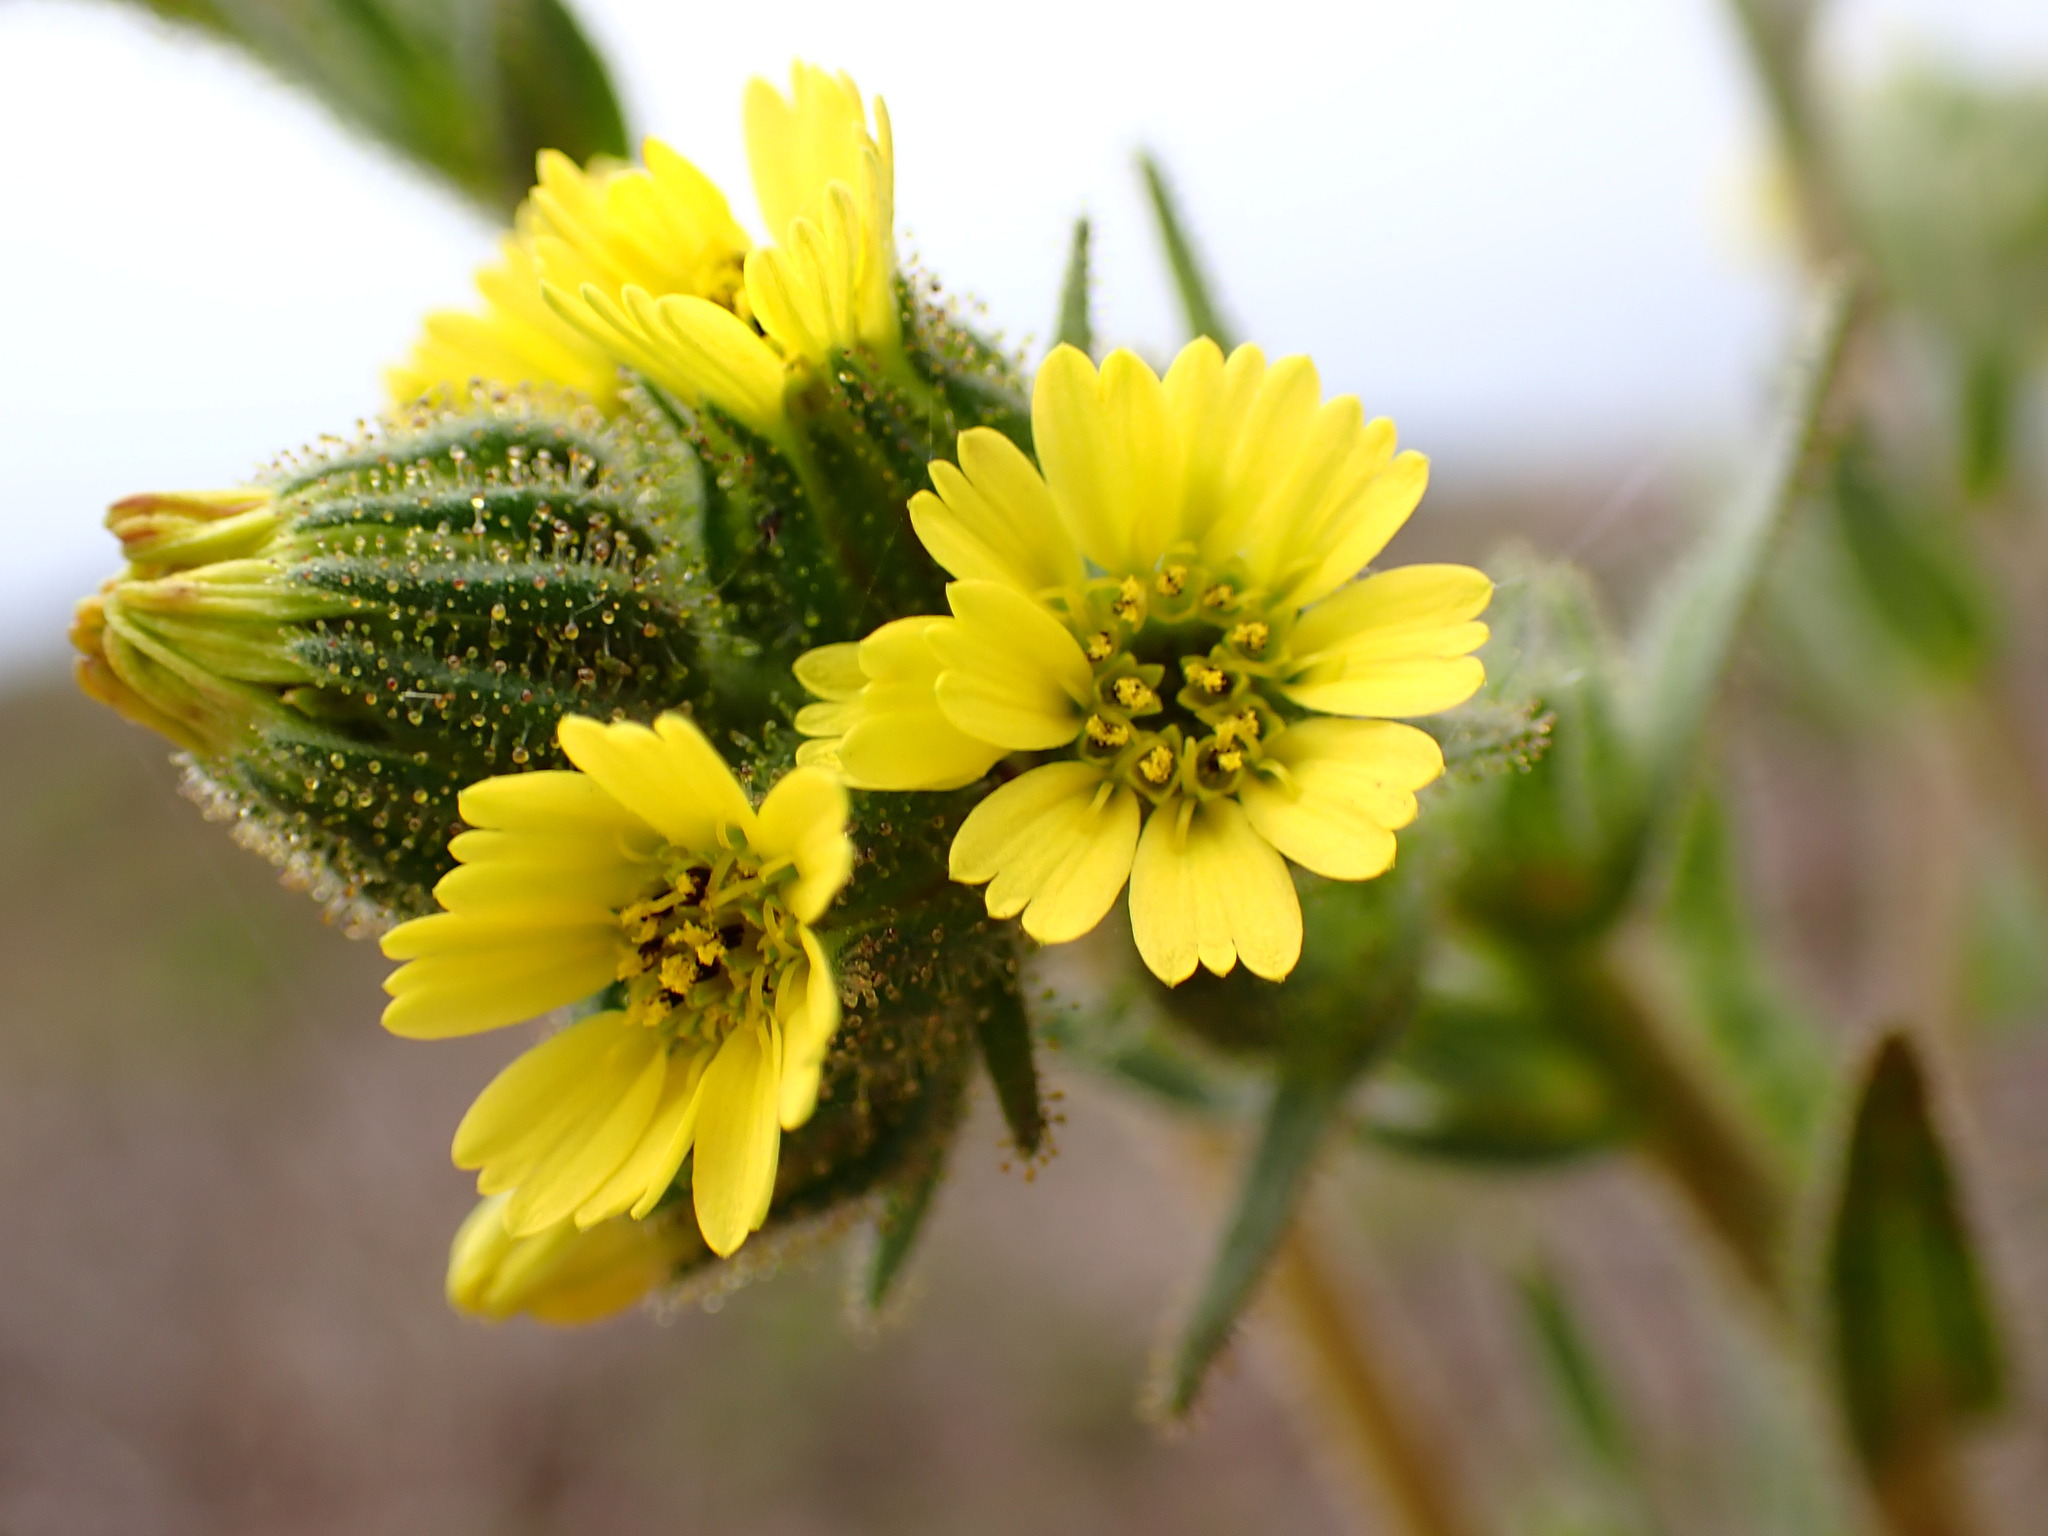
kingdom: Plantae
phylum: Tracheophyta
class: Magnoliopsida
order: Asterales
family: Asteraceae
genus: Madia
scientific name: Madia sativa
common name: Coast tarweed
